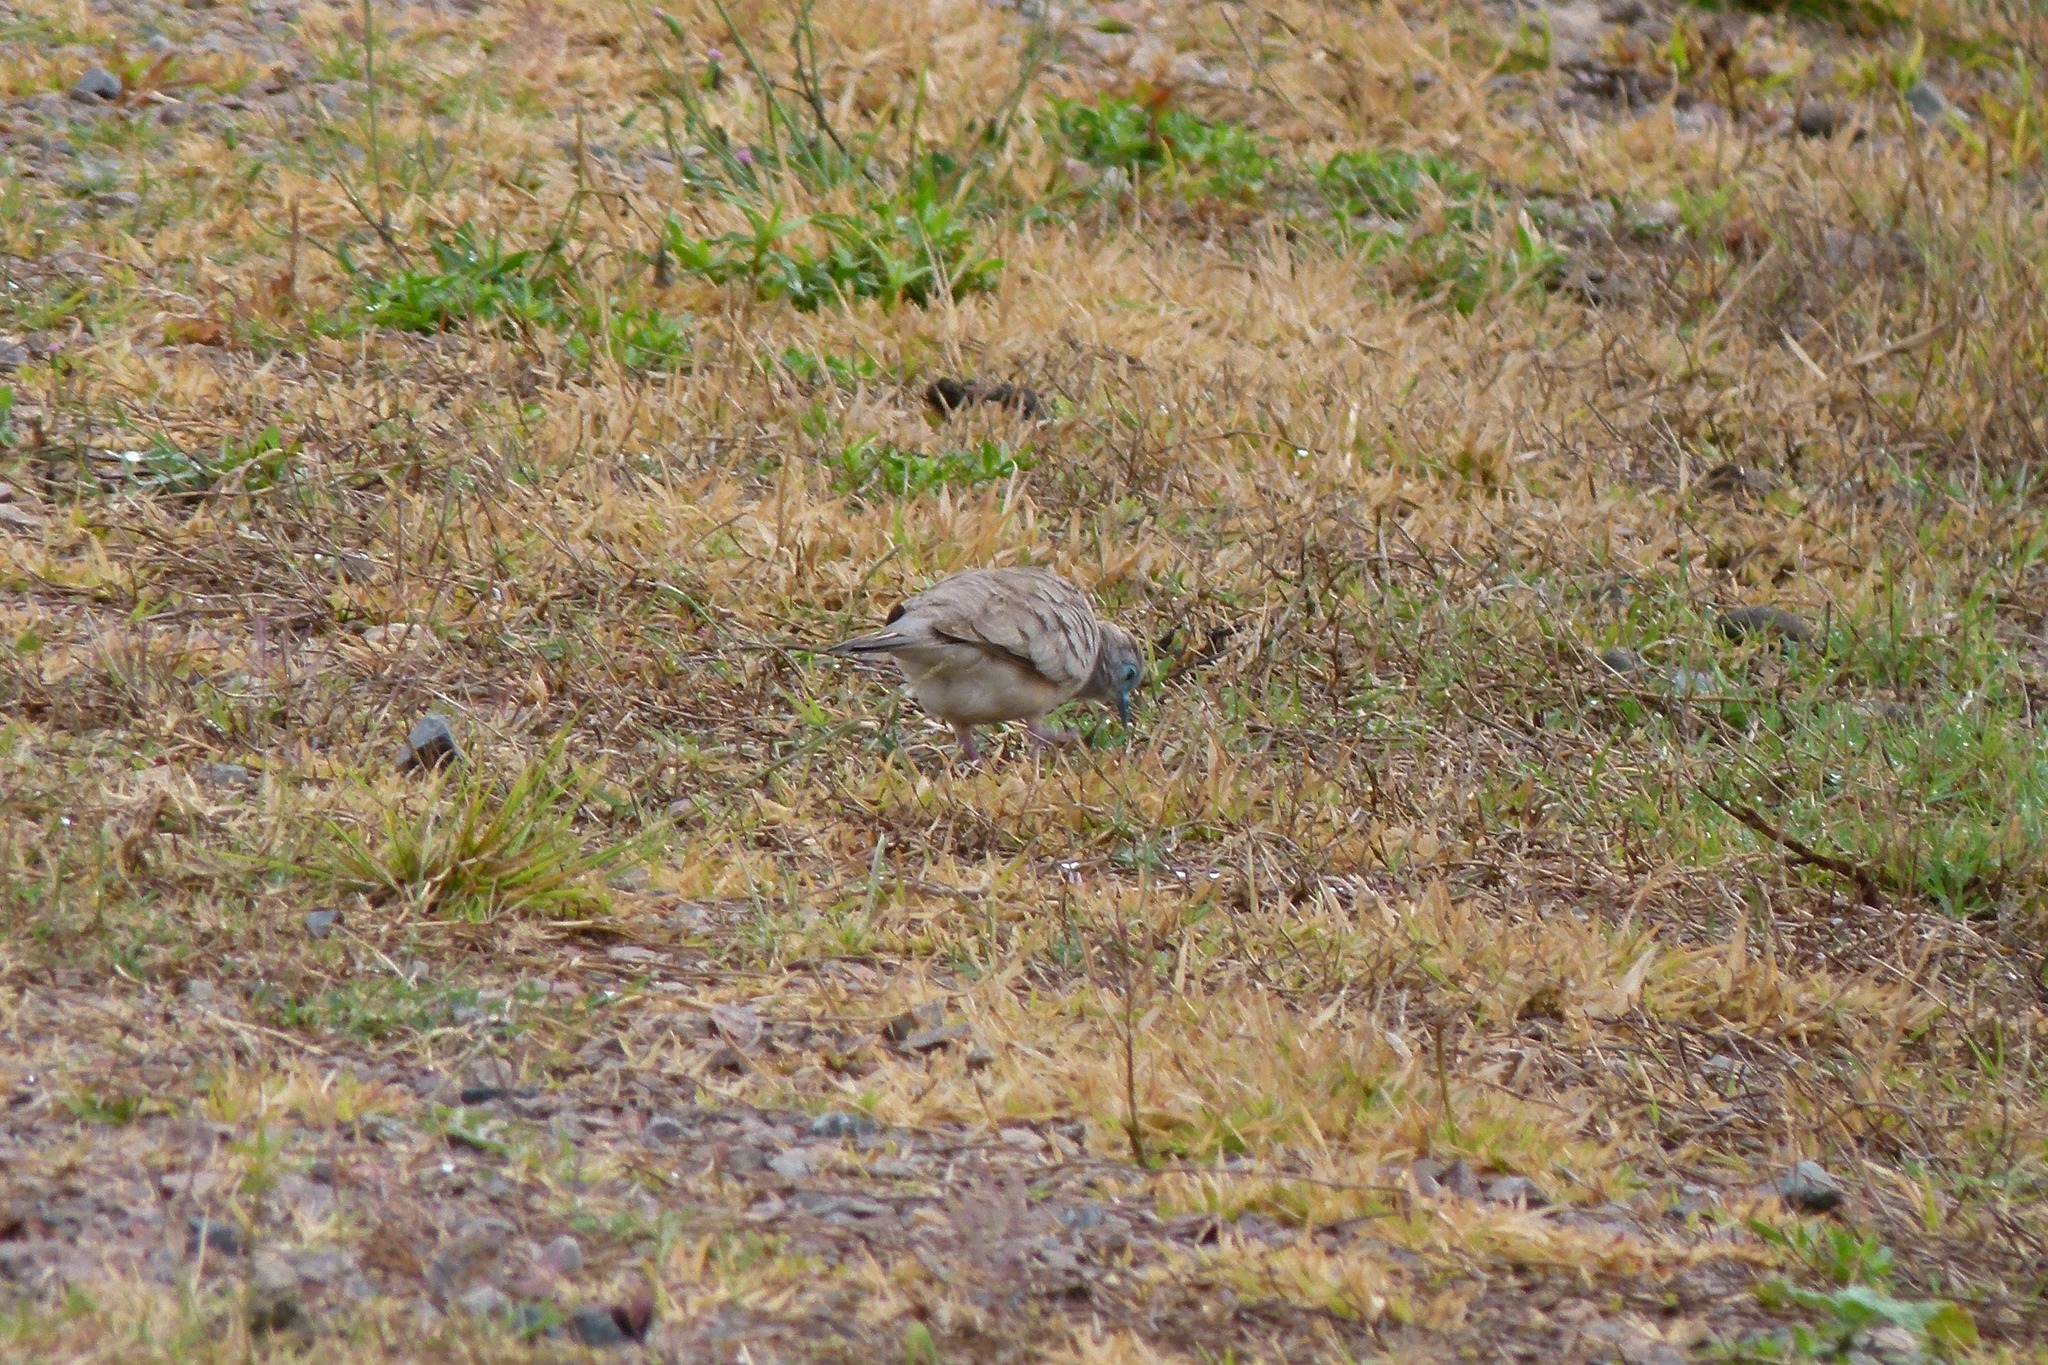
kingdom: Animalia
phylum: Chordata
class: Aves
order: Columbiformes
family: Columbidae
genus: Geopelia
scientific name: Geopelia placida
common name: Peaceful dove
